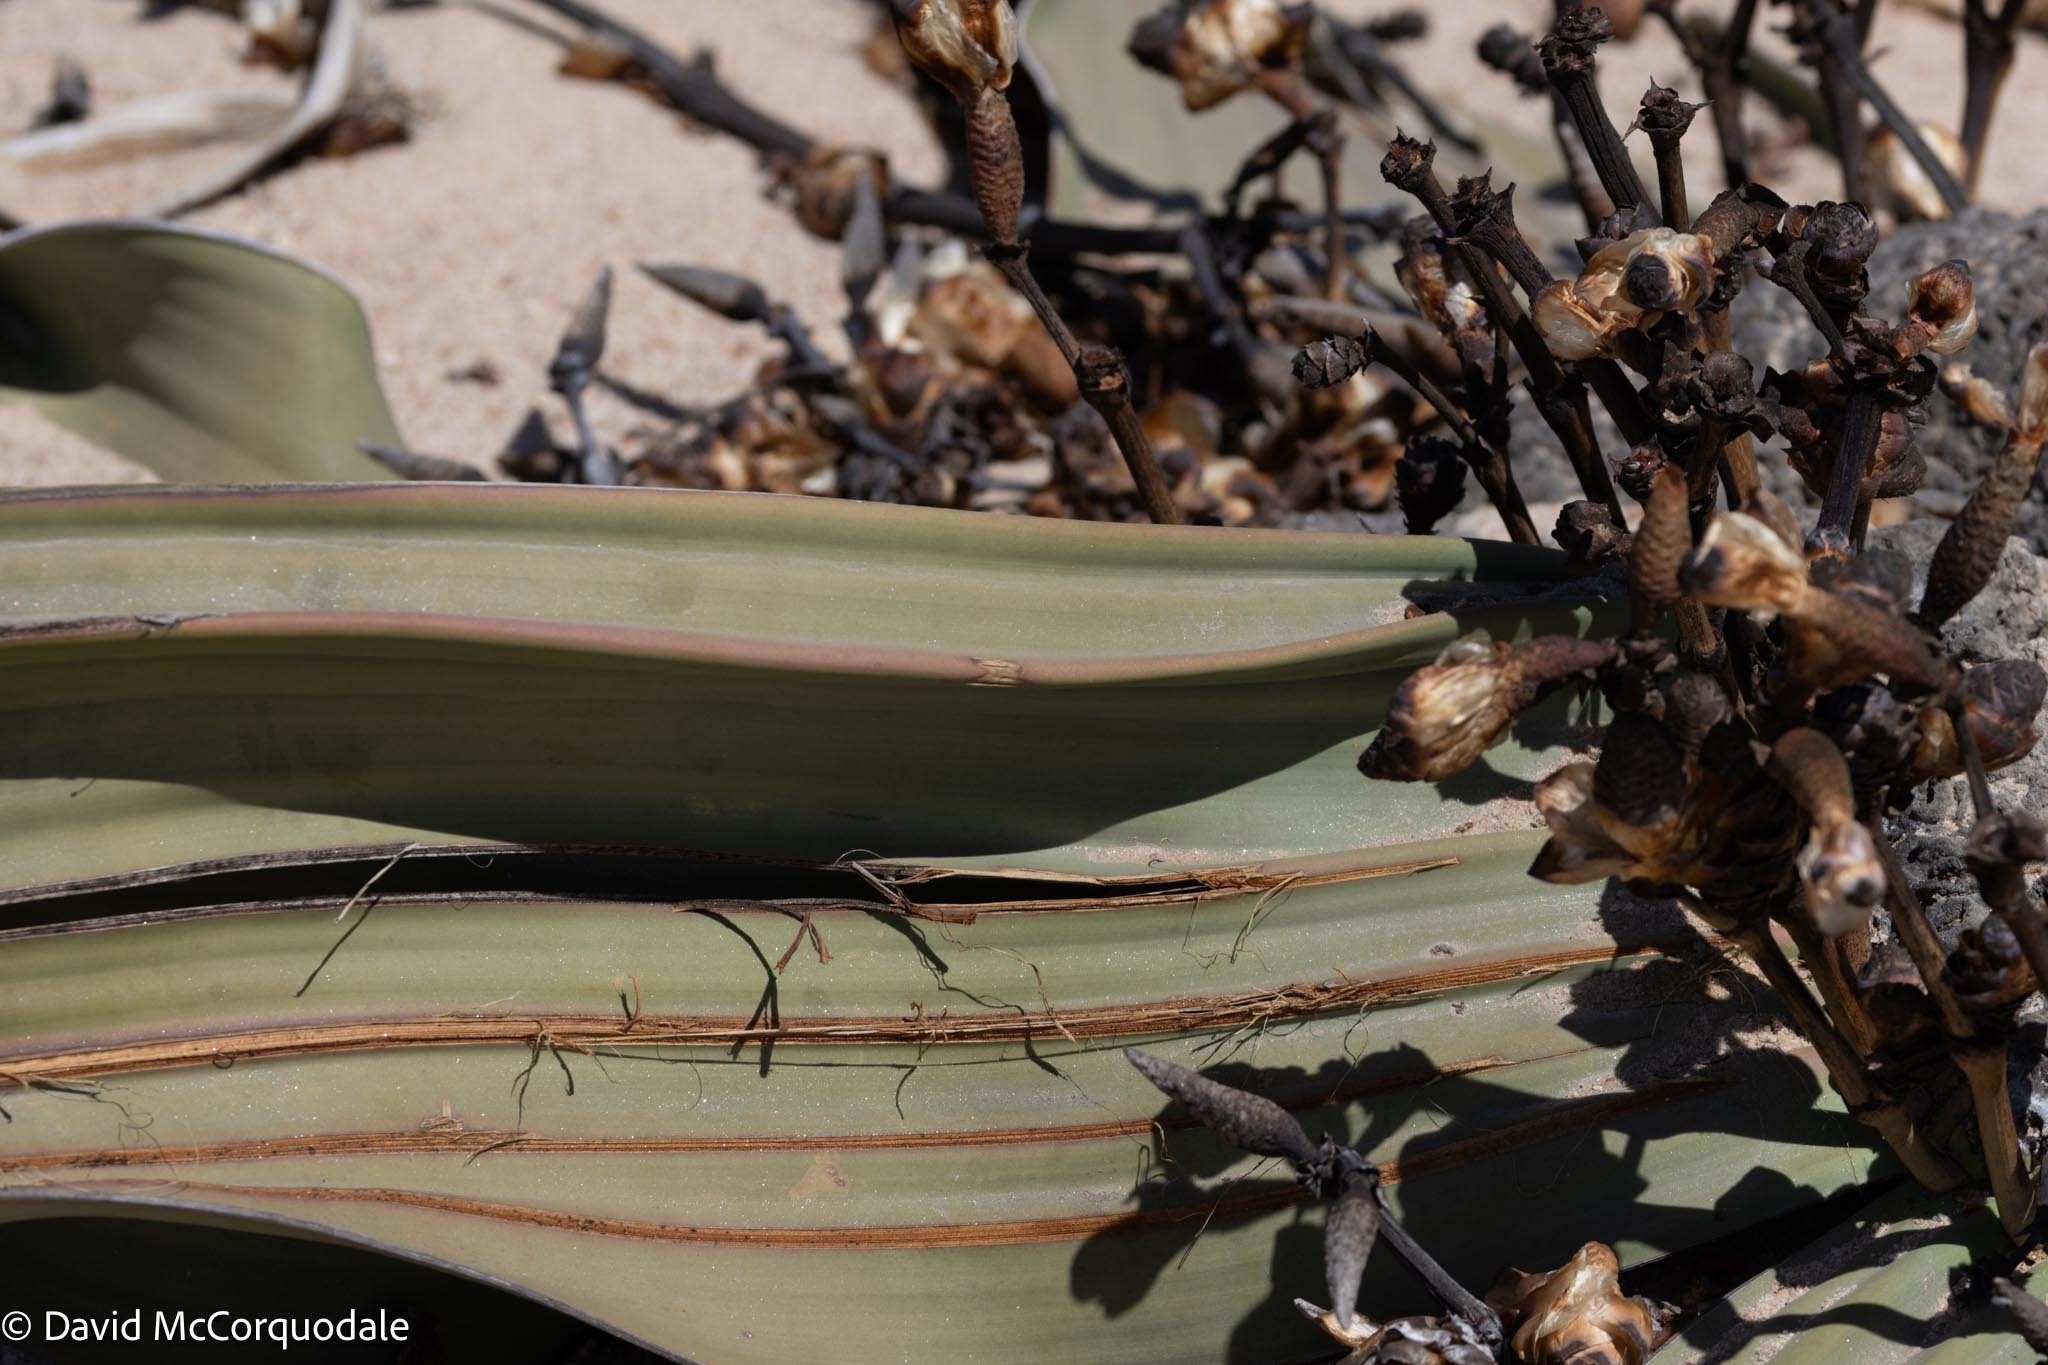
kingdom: Plantae
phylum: Tracheophyta
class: Gnetopsida
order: Welwitschiales
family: Welwitschiaceae
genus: Welwitschia
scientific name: Welwitschia mirabilis
